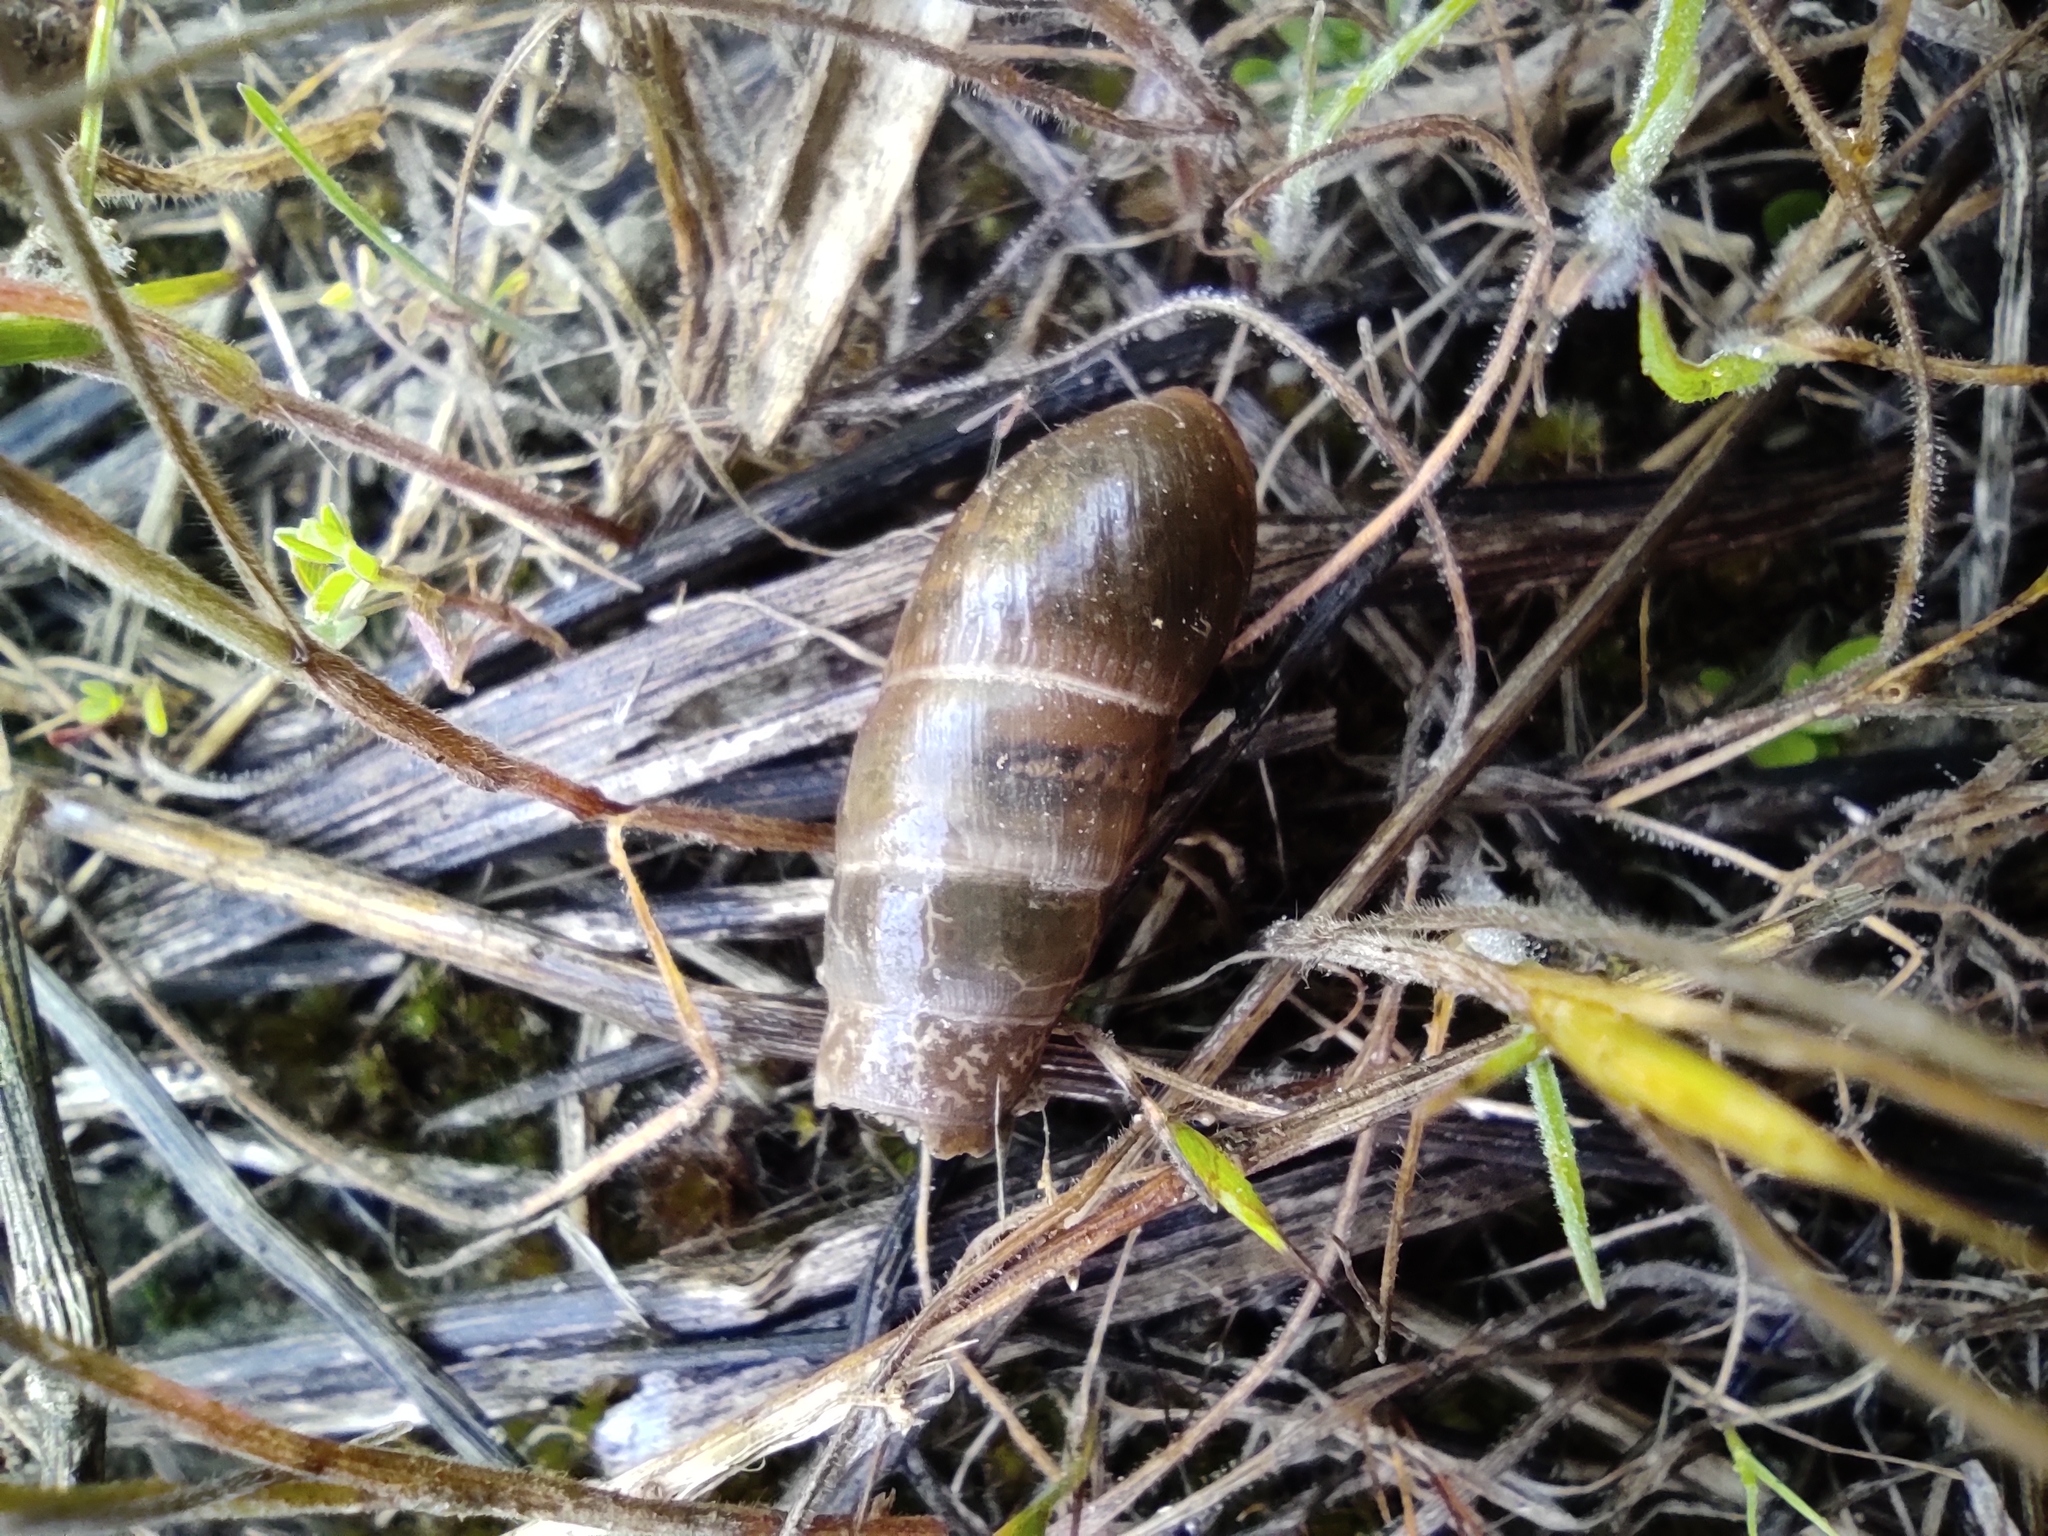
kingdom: Animalia
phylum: Mollusca
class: Gastropoda
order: Stylommatophora
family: Achatinidae
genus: Rumina
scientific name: Rumina decollata
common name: Decollate snail
